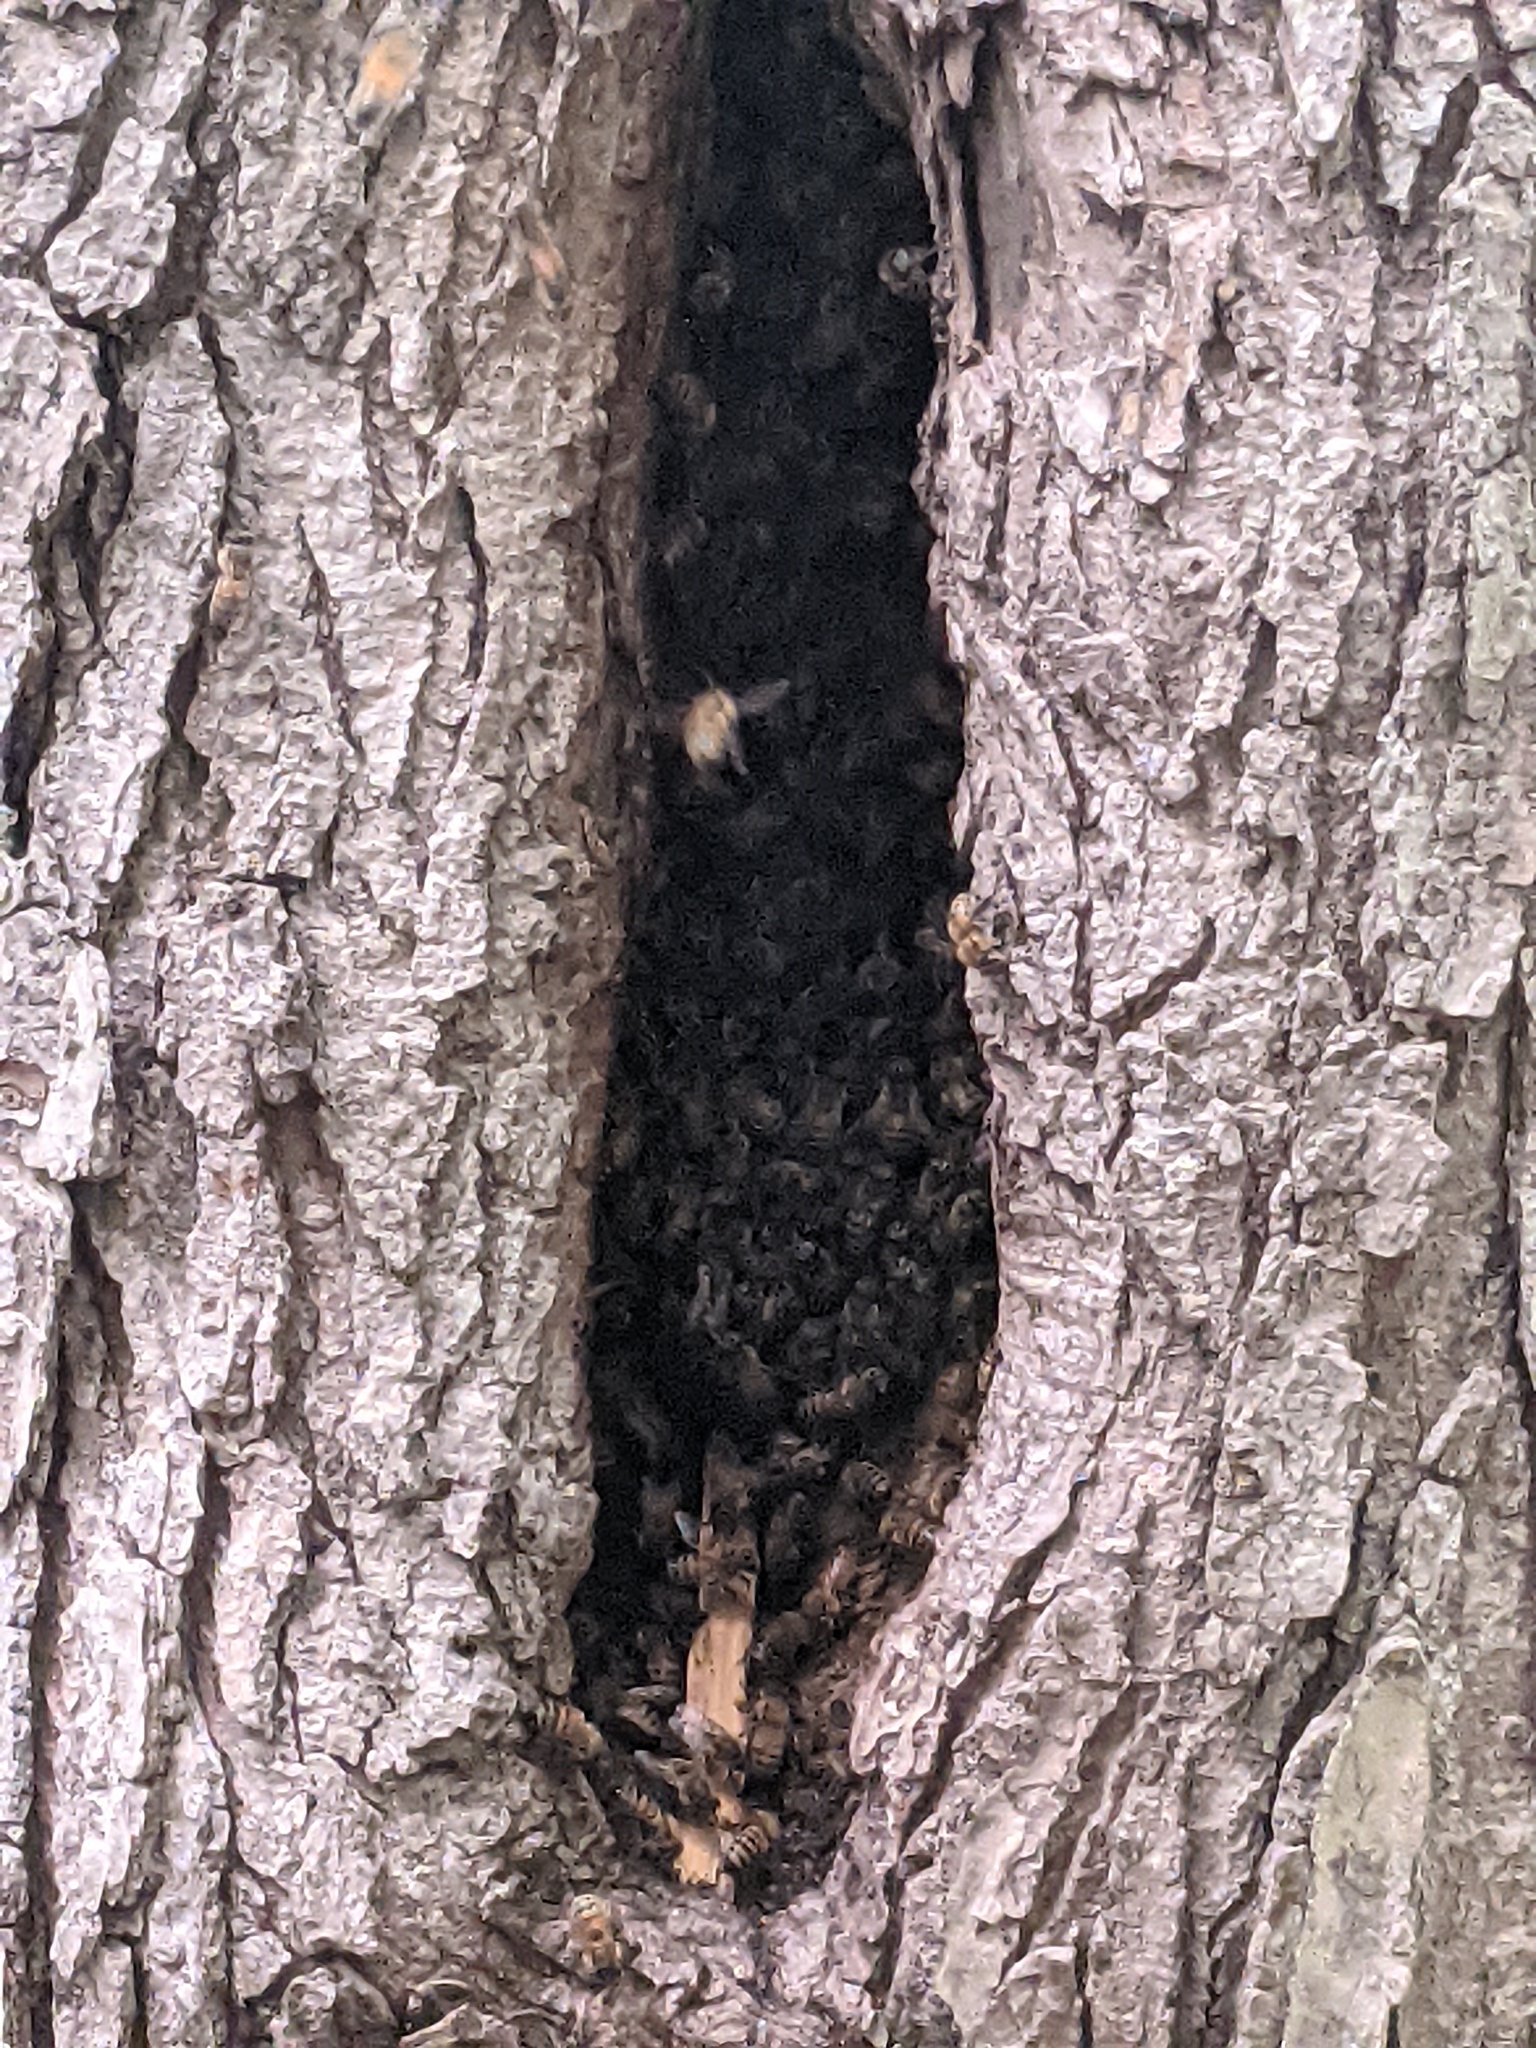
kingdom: Animalia
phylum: Arthropoda
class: Insecta
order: Hymenoptera
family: Apidae
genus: Apis
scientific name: Apis mellifera
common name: Honey bee
